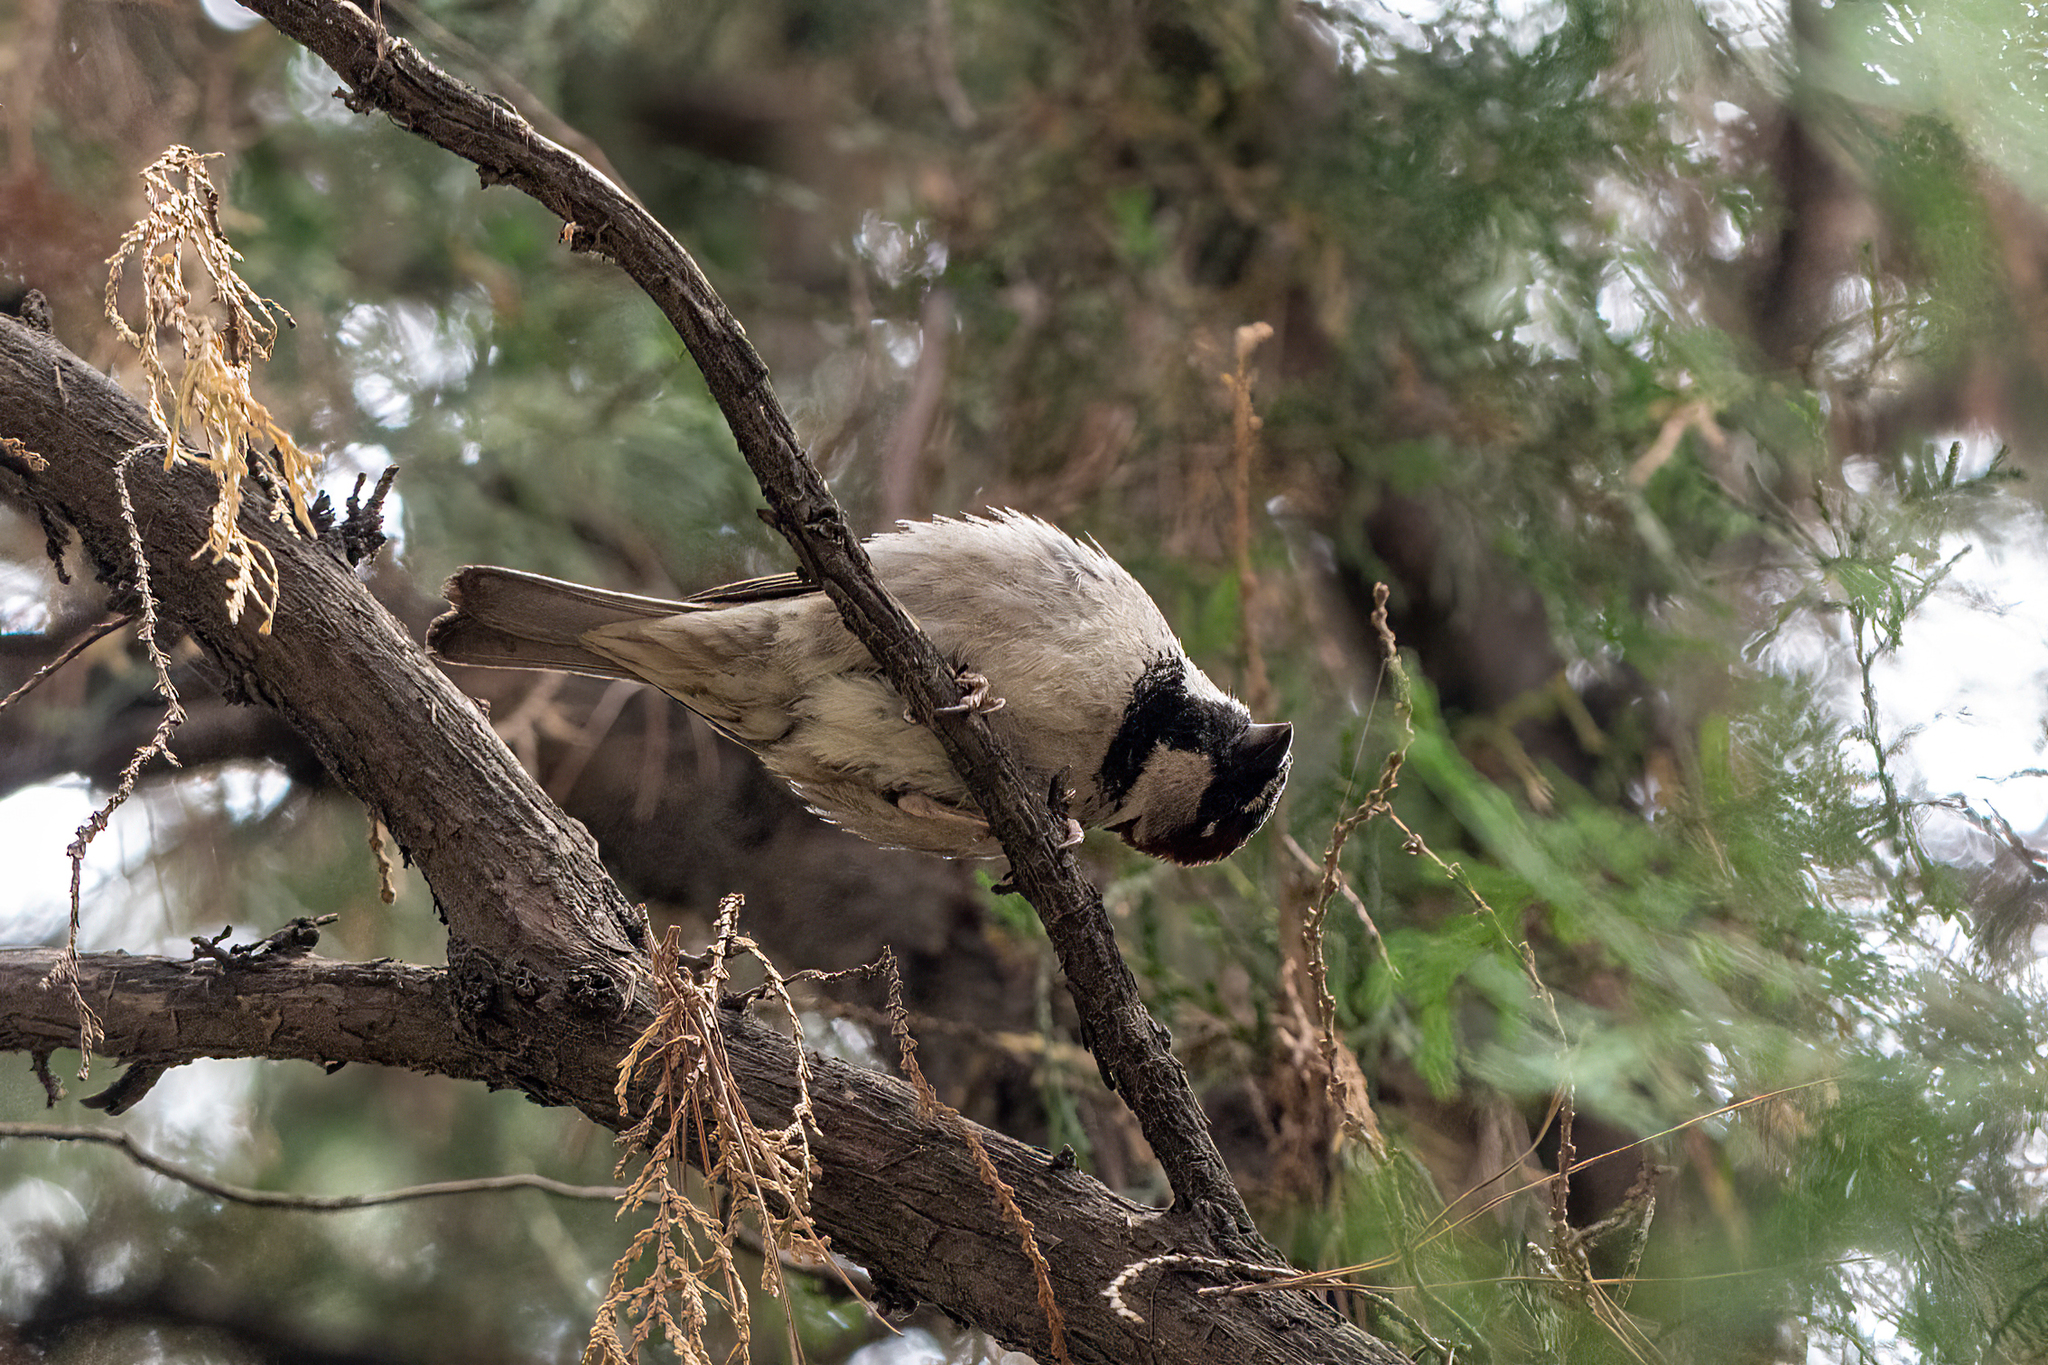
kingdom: Animalia
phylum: Chordata
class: Aves
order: Passeriformes
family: Passeridae
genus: Passer
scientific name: Passer domesticus
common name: House sparrow
